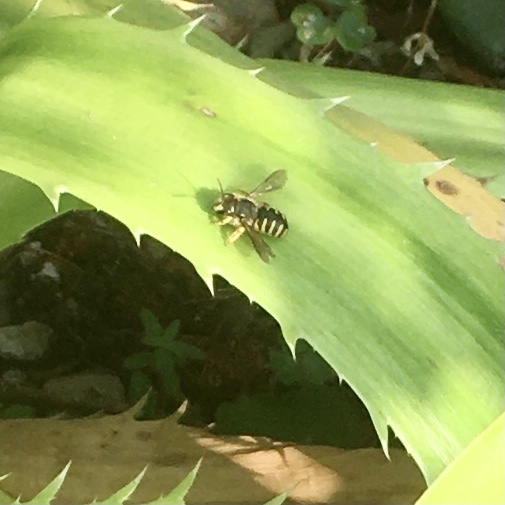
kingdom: Animalia
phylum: Arthropoda
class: Insecta
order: Hymenoptera
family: Megachilidae
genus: Anthidium
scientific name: Anthidium manicatum
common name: Wool carder bee
